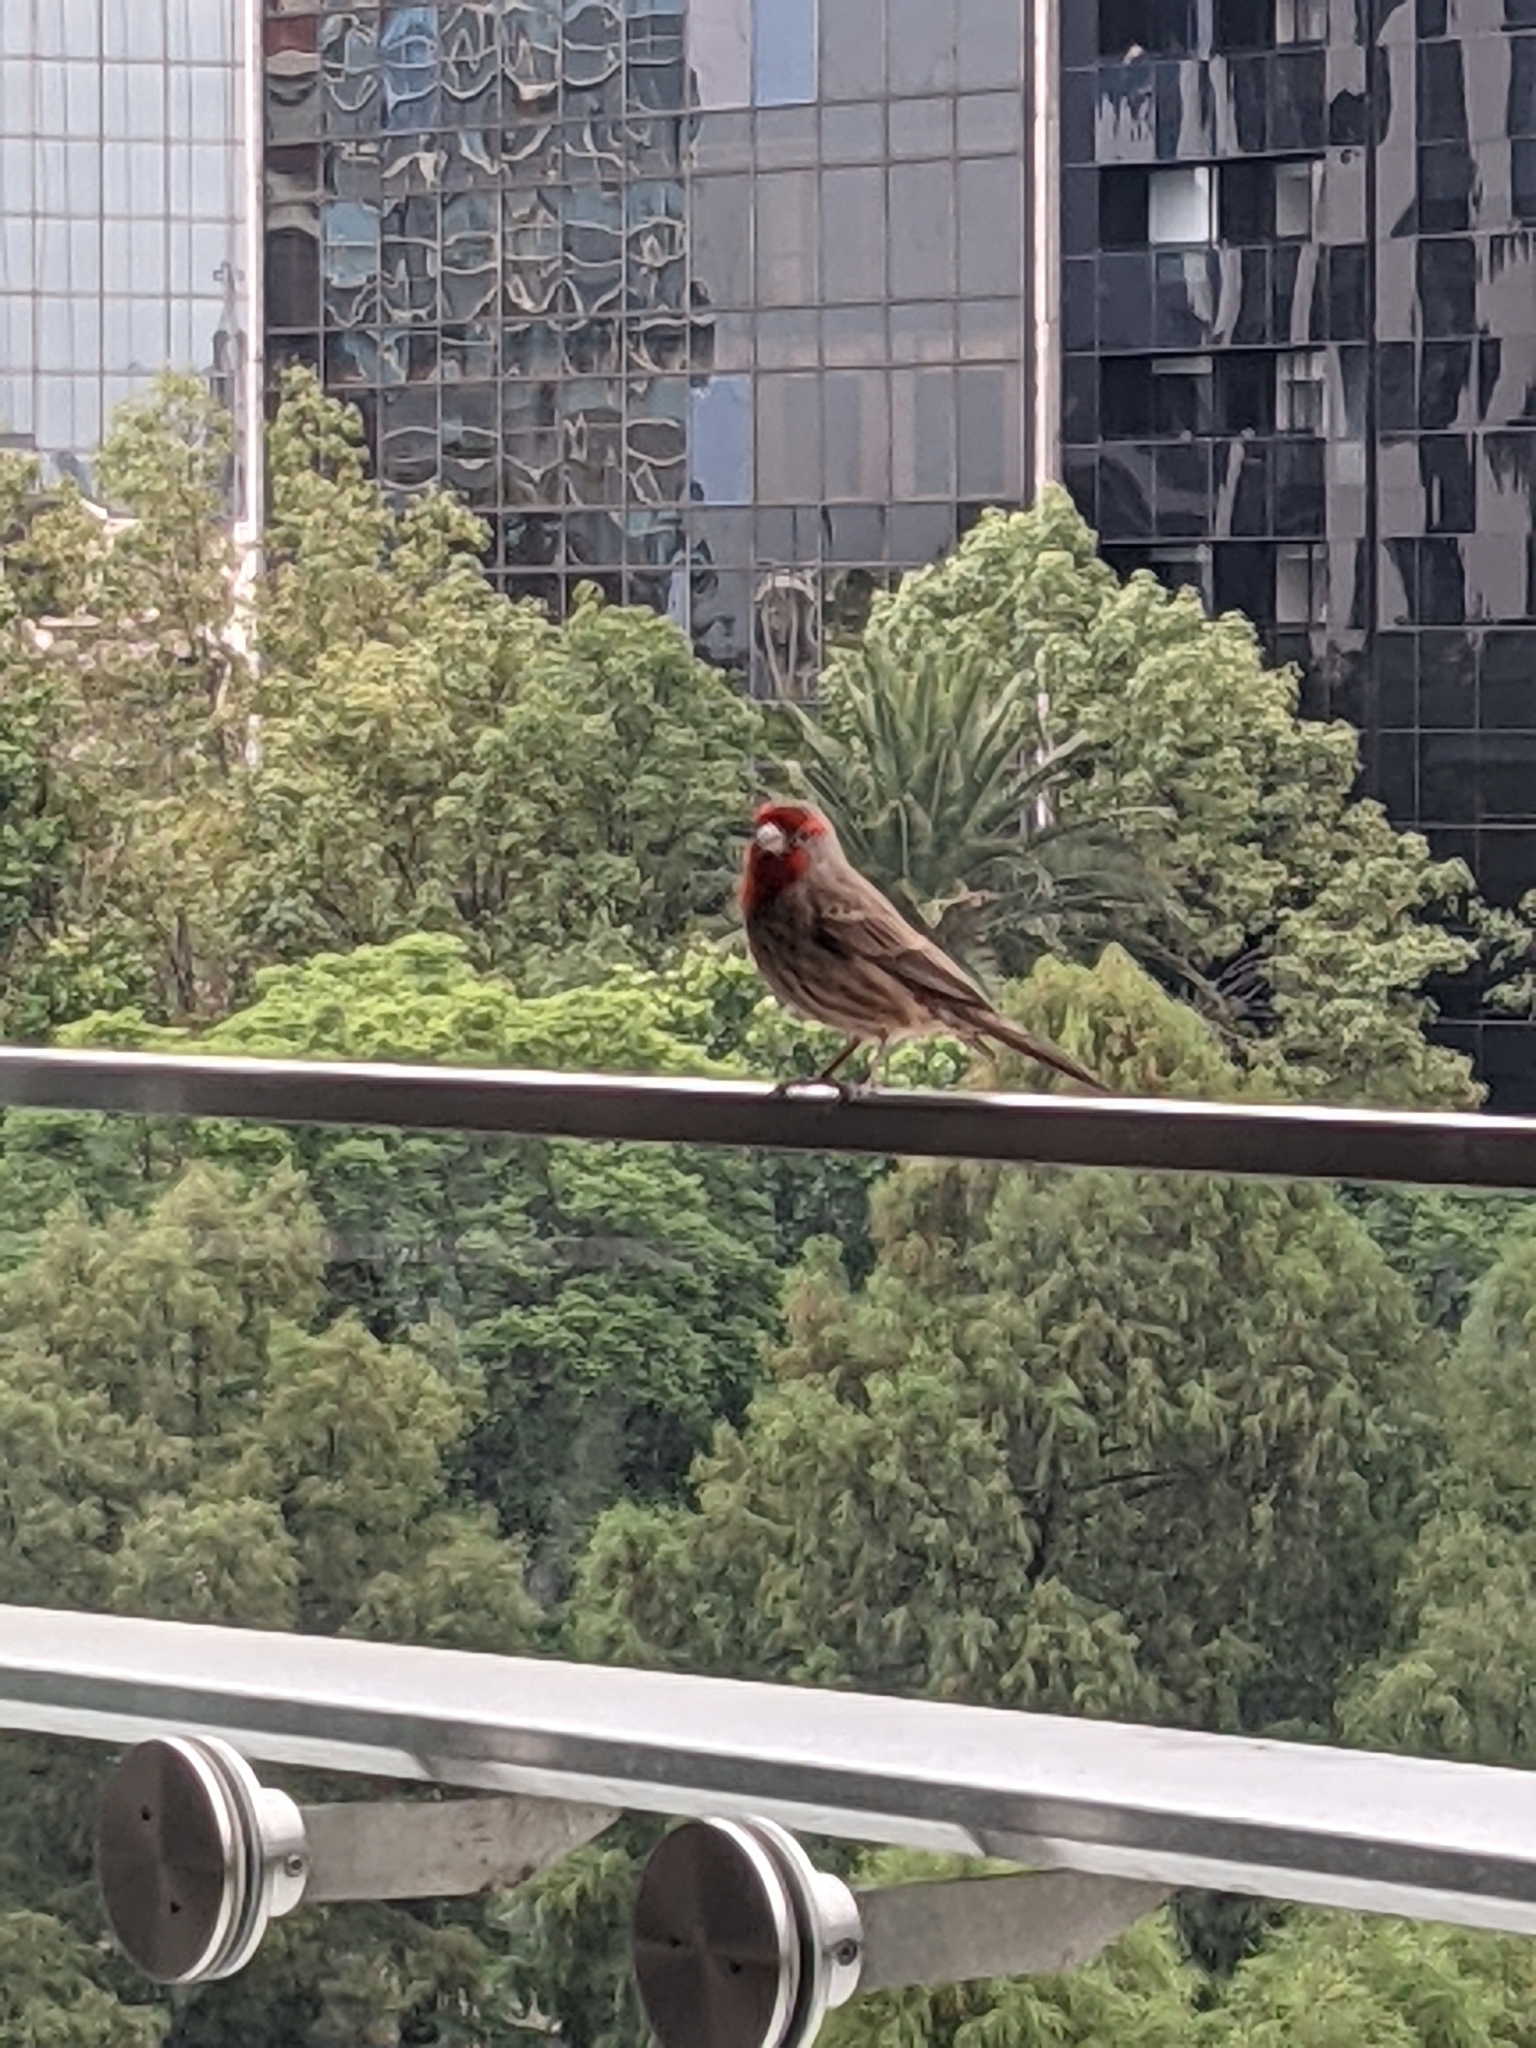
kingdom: Animalia
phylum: Chordata
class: Aves
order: Passeriformes
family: Fringillidae
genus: Haemorhous
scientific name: Haemorhous mexicanus
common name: House finch
